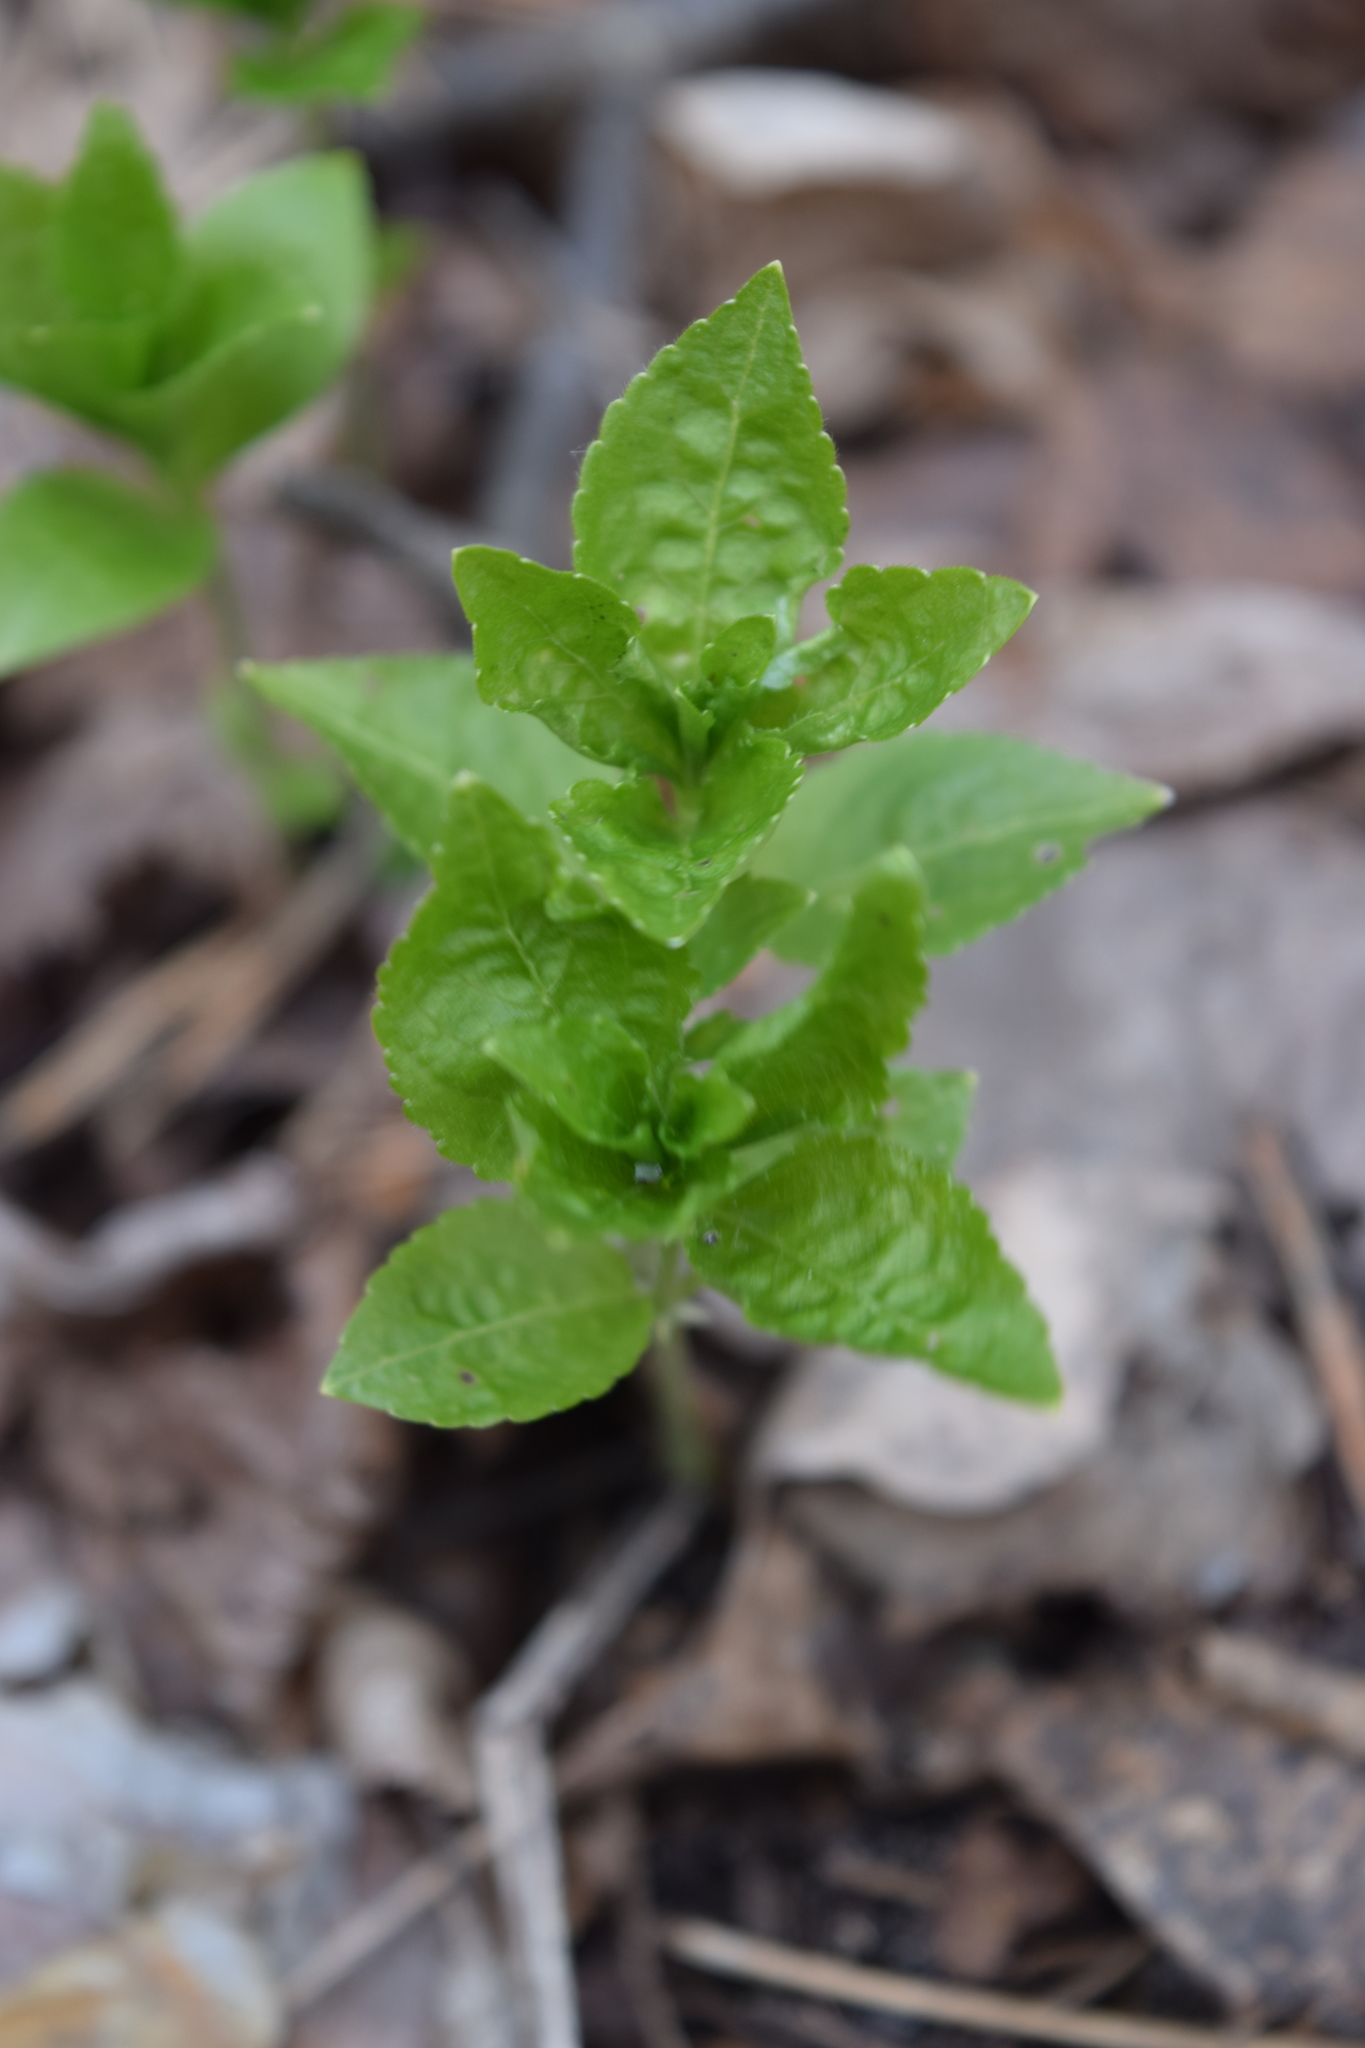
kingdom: Plantae
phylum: Tracheophyta
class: Magnoliopsida
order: Malpighiales
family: Euphorbiaceae
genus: Mercurialis
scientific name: Mercurialis perennis
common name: Dog mercury
